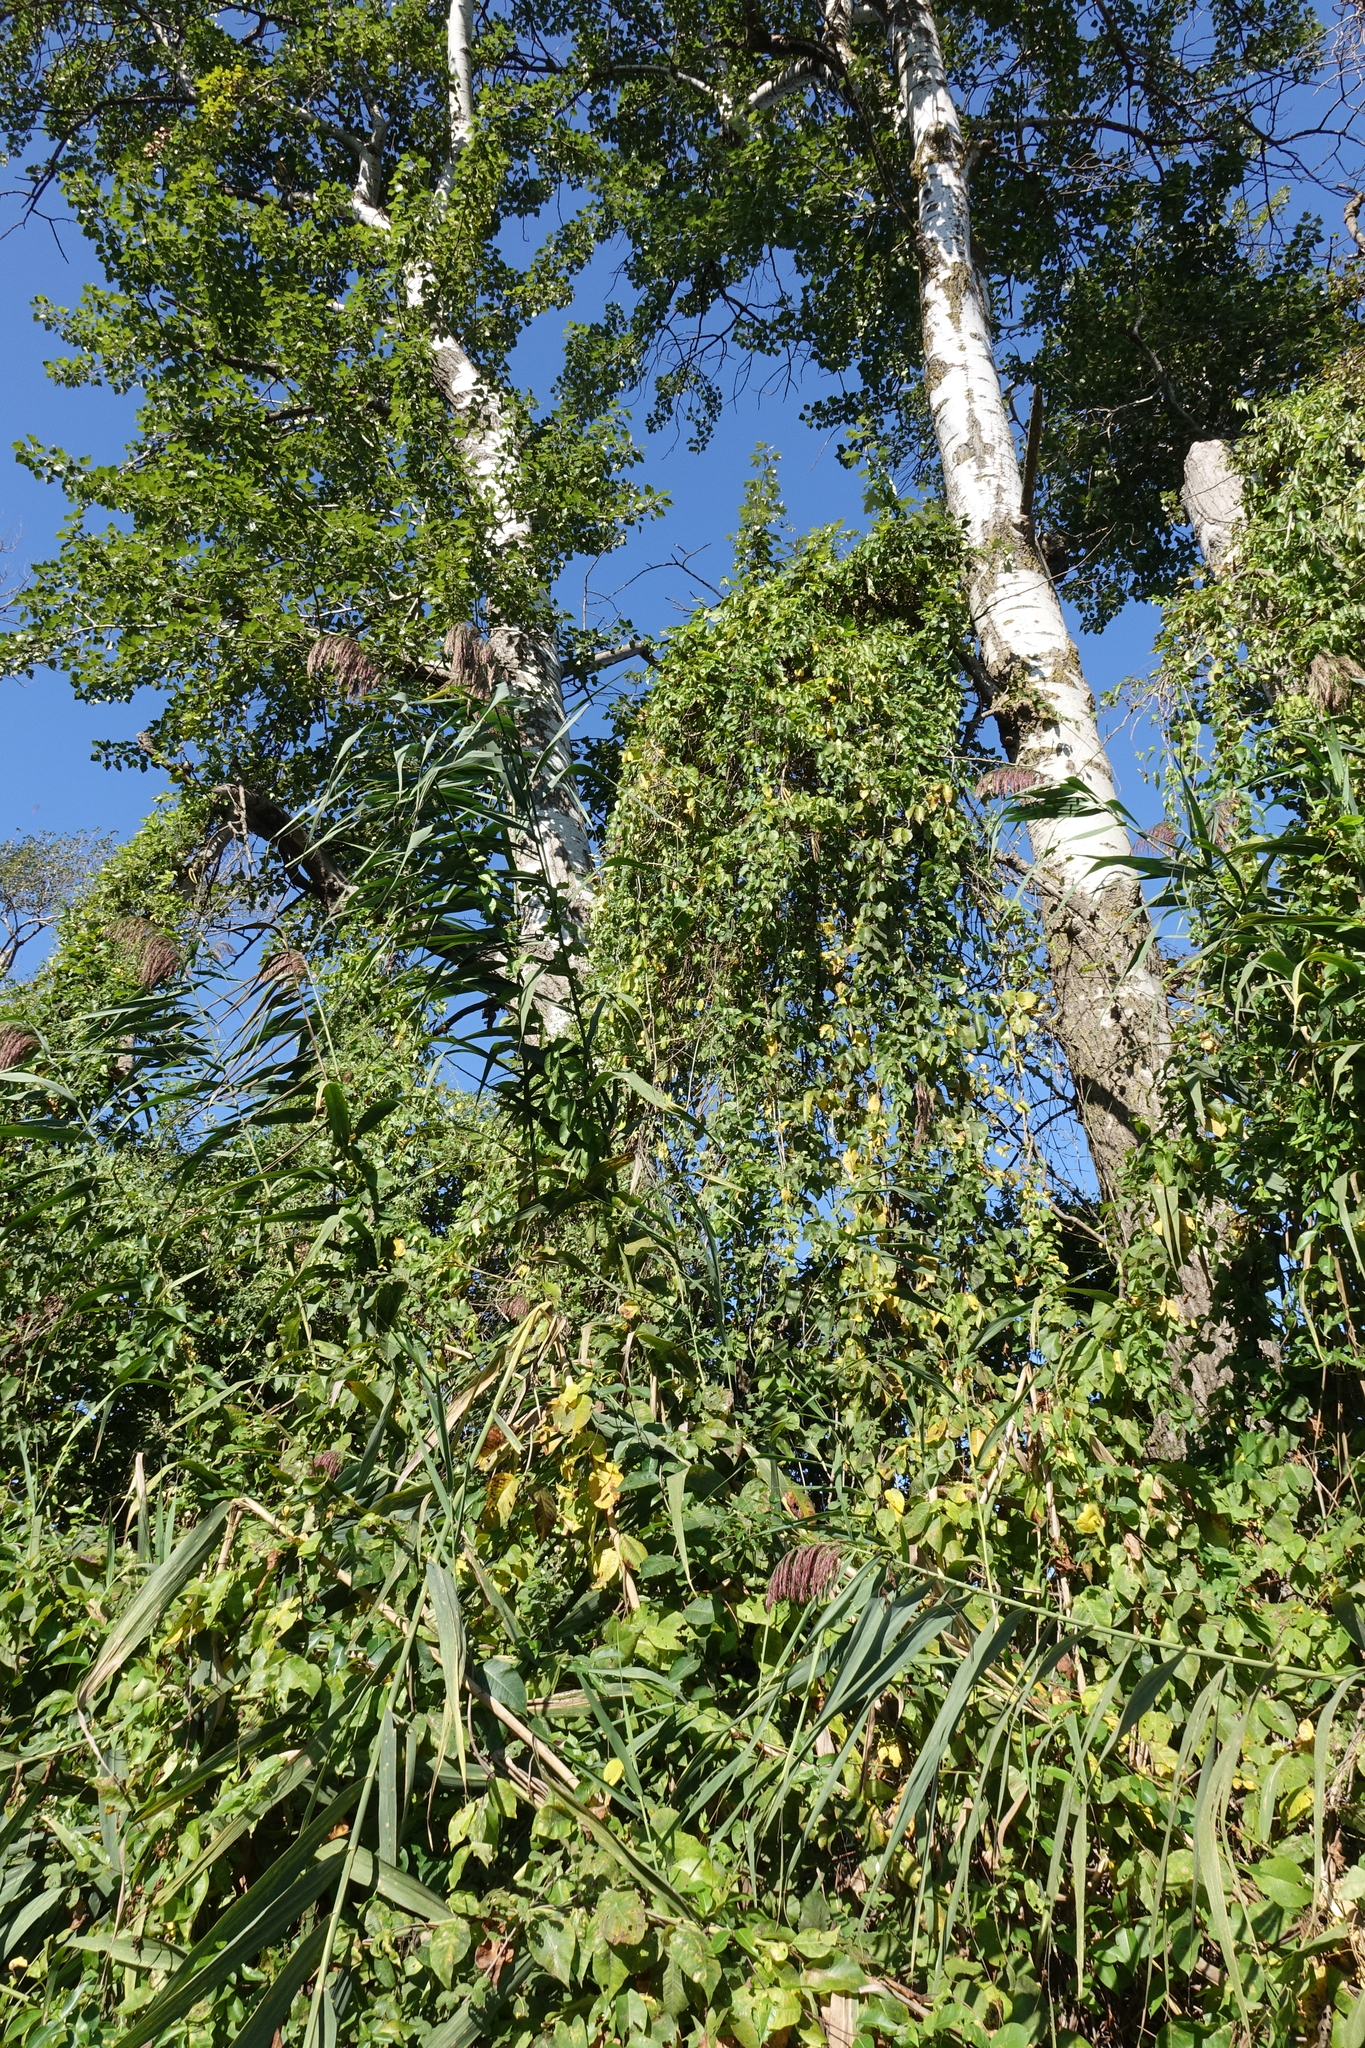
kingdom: Plantae
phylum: Tracheophyta
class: Liliopsida
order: Poales
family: Poaceae
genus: Phragmites
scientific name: Phragmites australis
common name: Common reed
